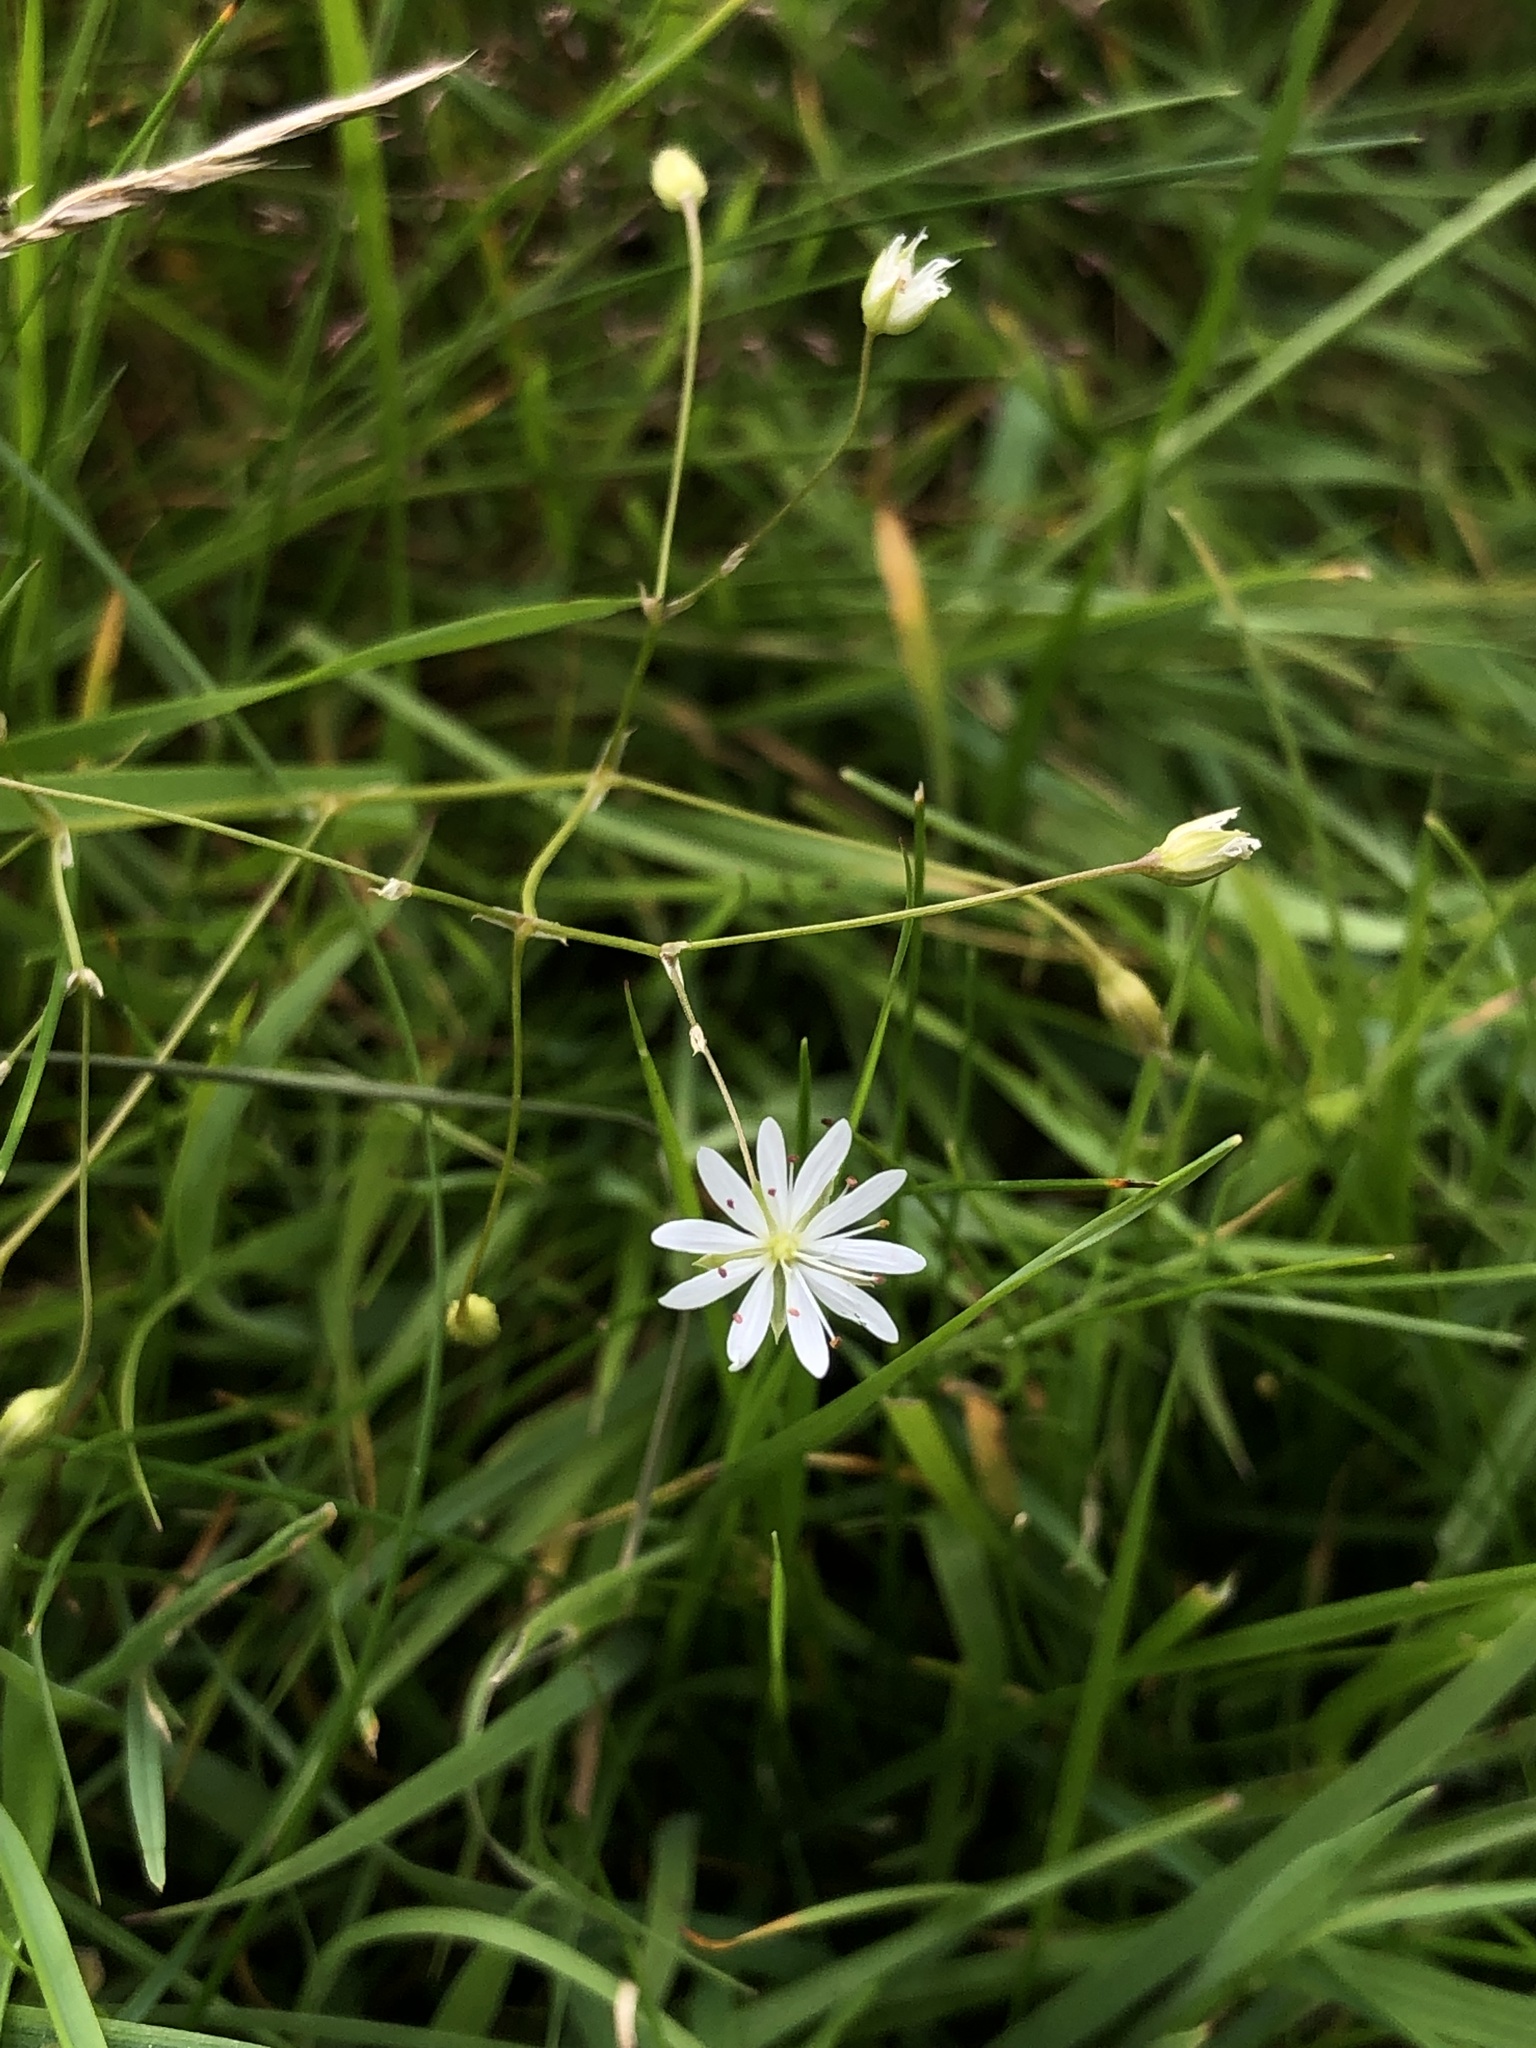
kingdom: Plantae
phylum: Tracheophyta
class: Magnoliopsida
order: Caryophyllales
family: Caryophyllaceae
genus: Stellaria
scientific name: Stellaria graminea
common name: Grass-like starwort
